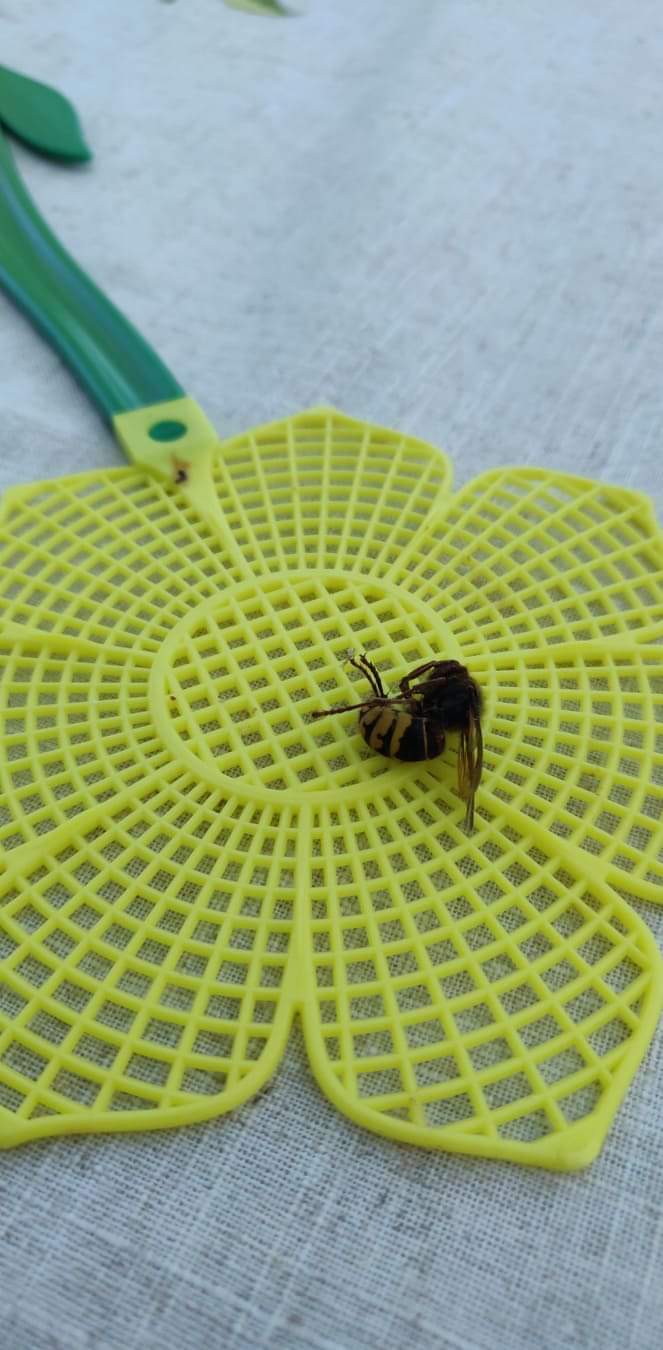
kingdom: Animalia
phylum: Arthropoda
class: Insecta
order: Hymenoptera
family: Vespidae
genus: Vespa
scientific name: Vespa crabro
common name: Hornet
